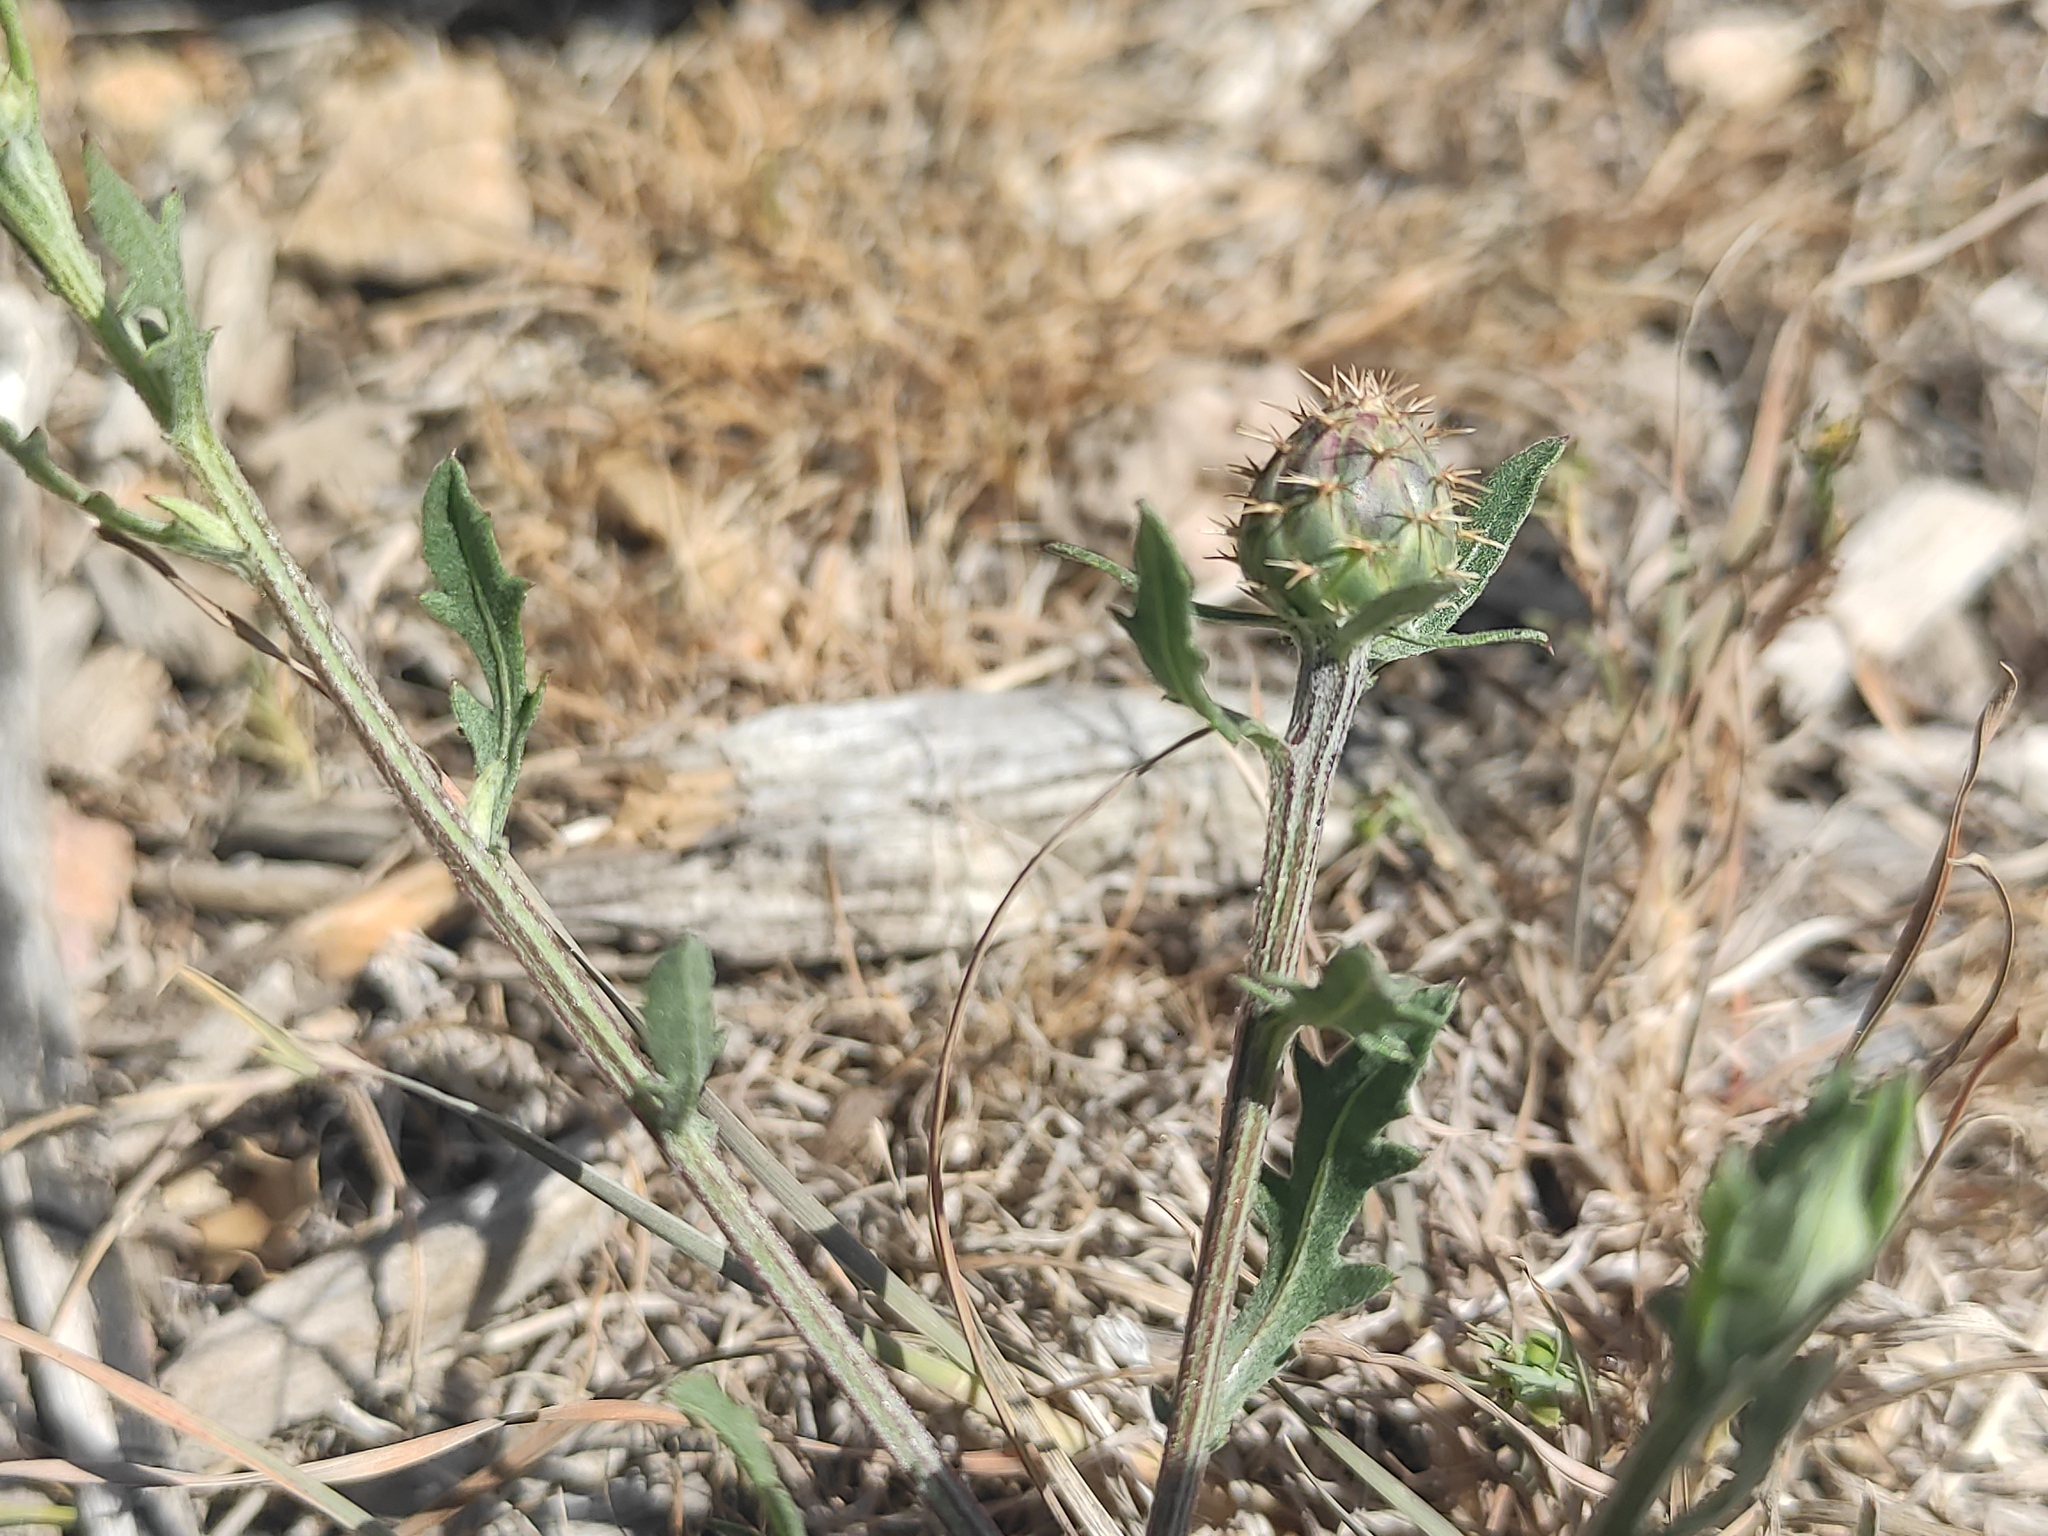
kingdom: Plantae
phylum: Tracheophyta
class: Magnoliopsida
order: Asterales
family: Asteraceae
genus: Centaurea
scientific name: Centaurea aspera
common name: Rough star-thistle
